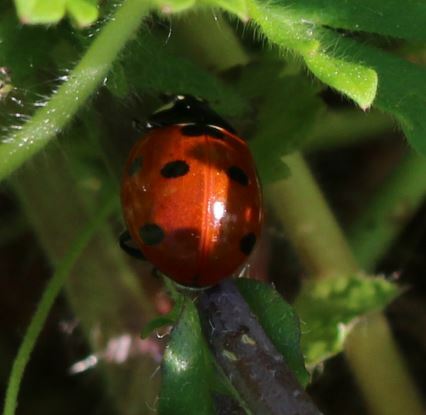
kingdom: Animalia
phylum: Arthropoda
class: Insecta
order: Coleoptera
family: Coccinellidae
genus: Coccinella
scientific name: Coccinella septempunctata
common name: Sevenspotted lady beetle
